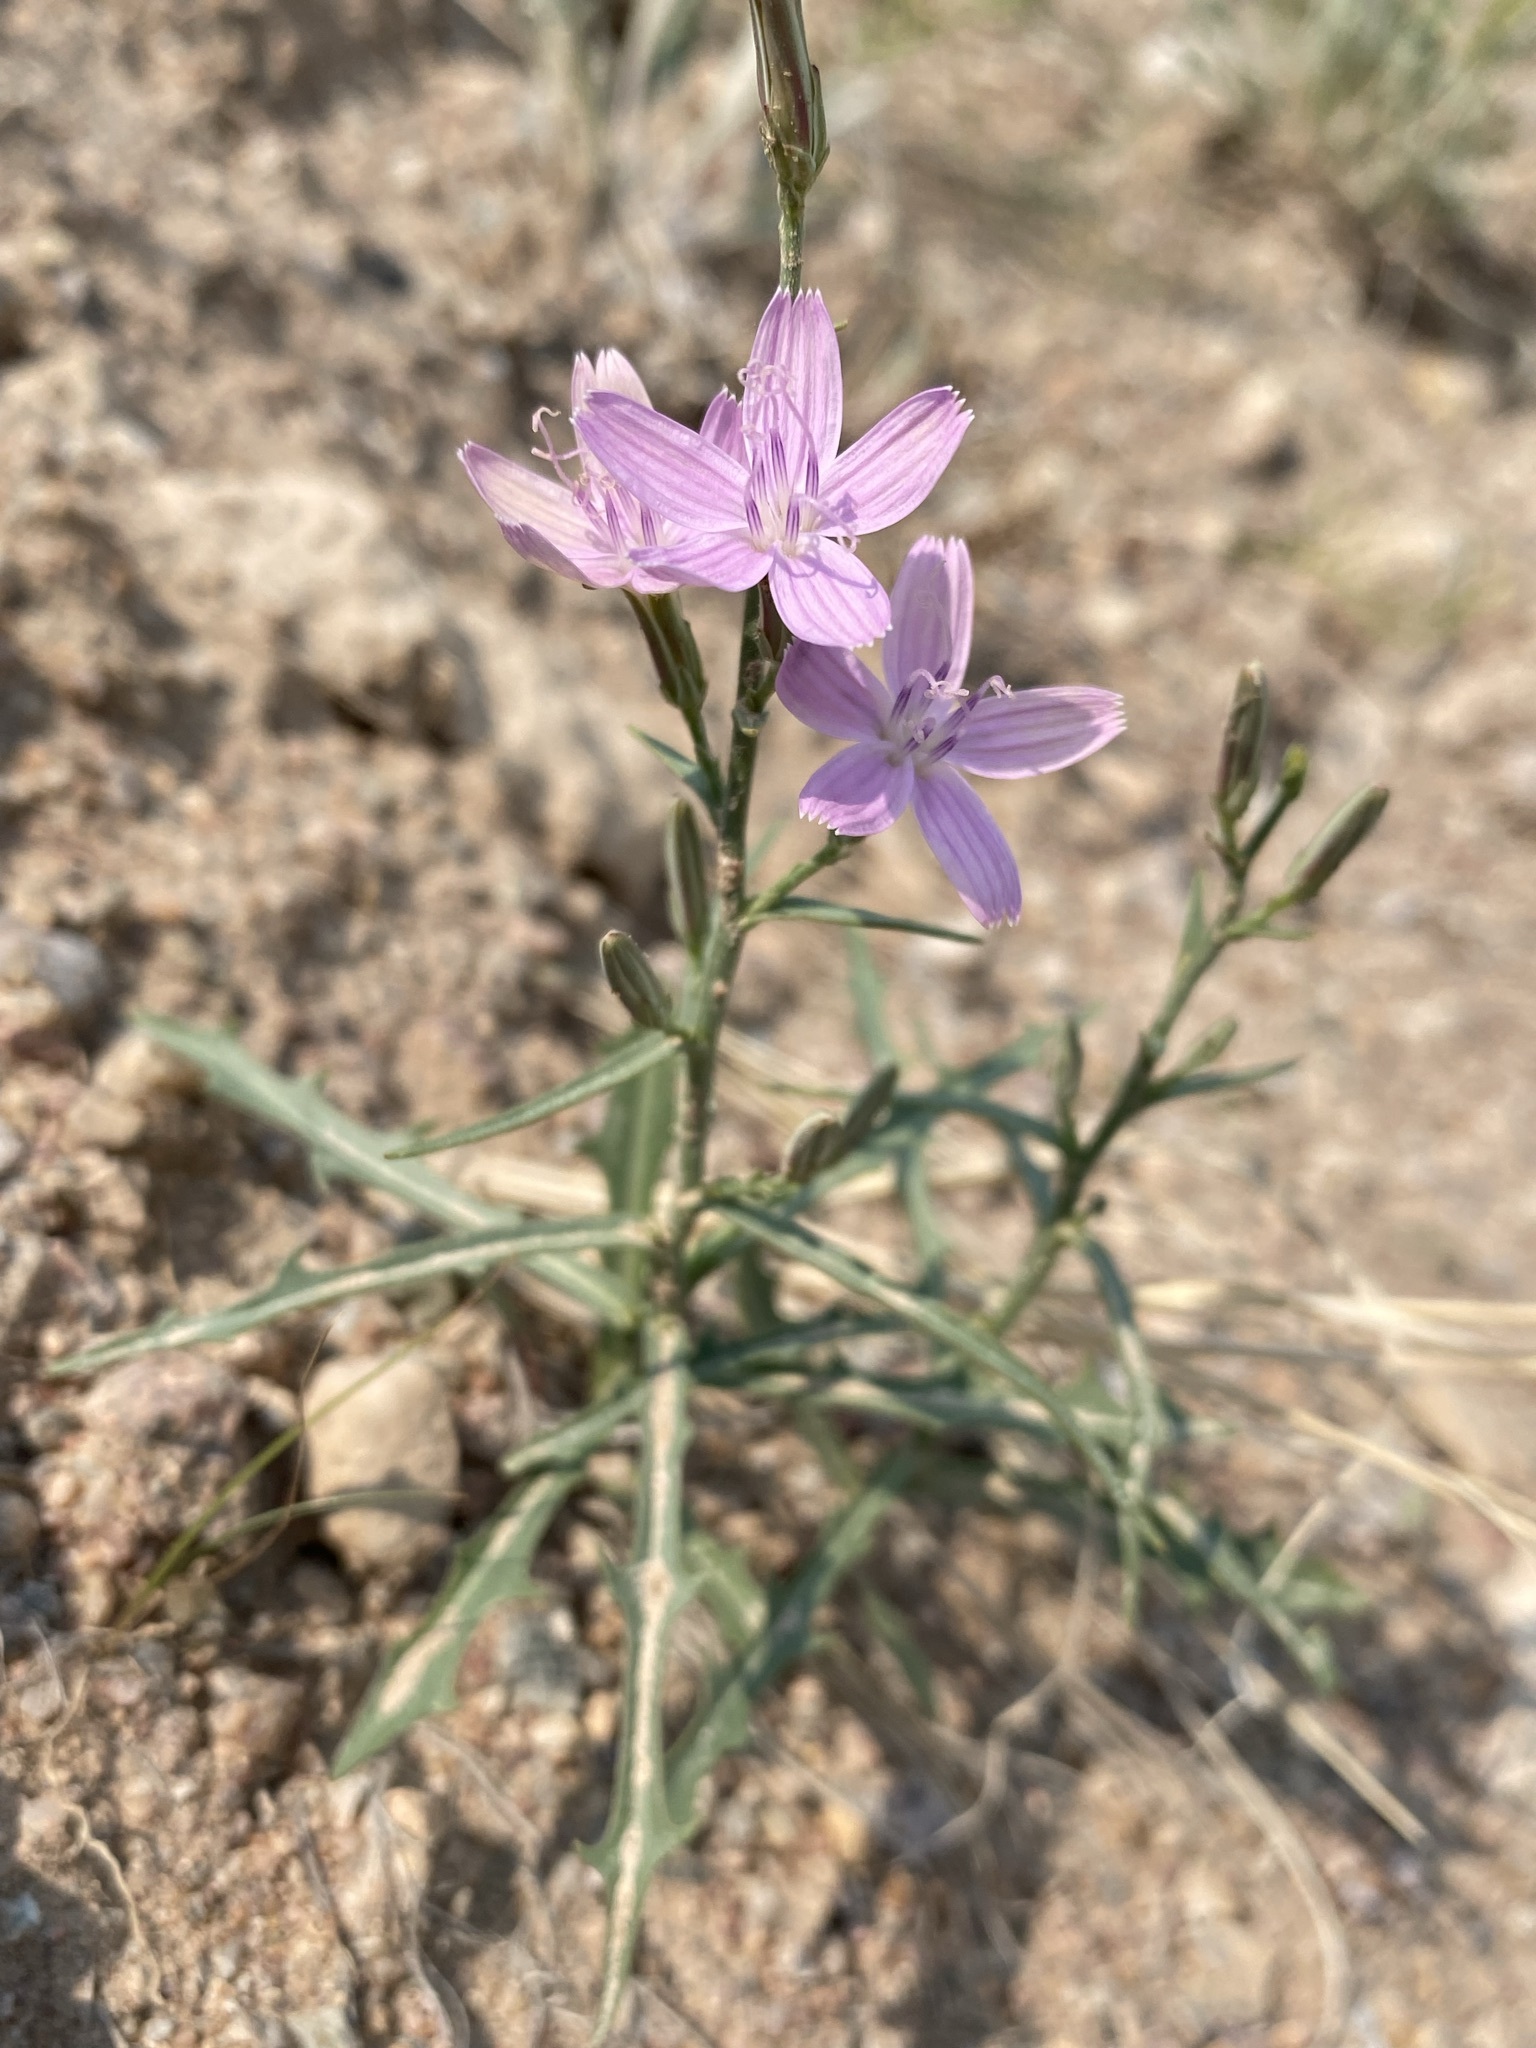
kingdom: Plantae
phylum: Tracheophyta
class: Magnoliopsida
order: Asterales
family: Asteraceae
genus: Stephanomeria
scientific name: Stephanomeria runcinata
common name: Desert wirelettuce
